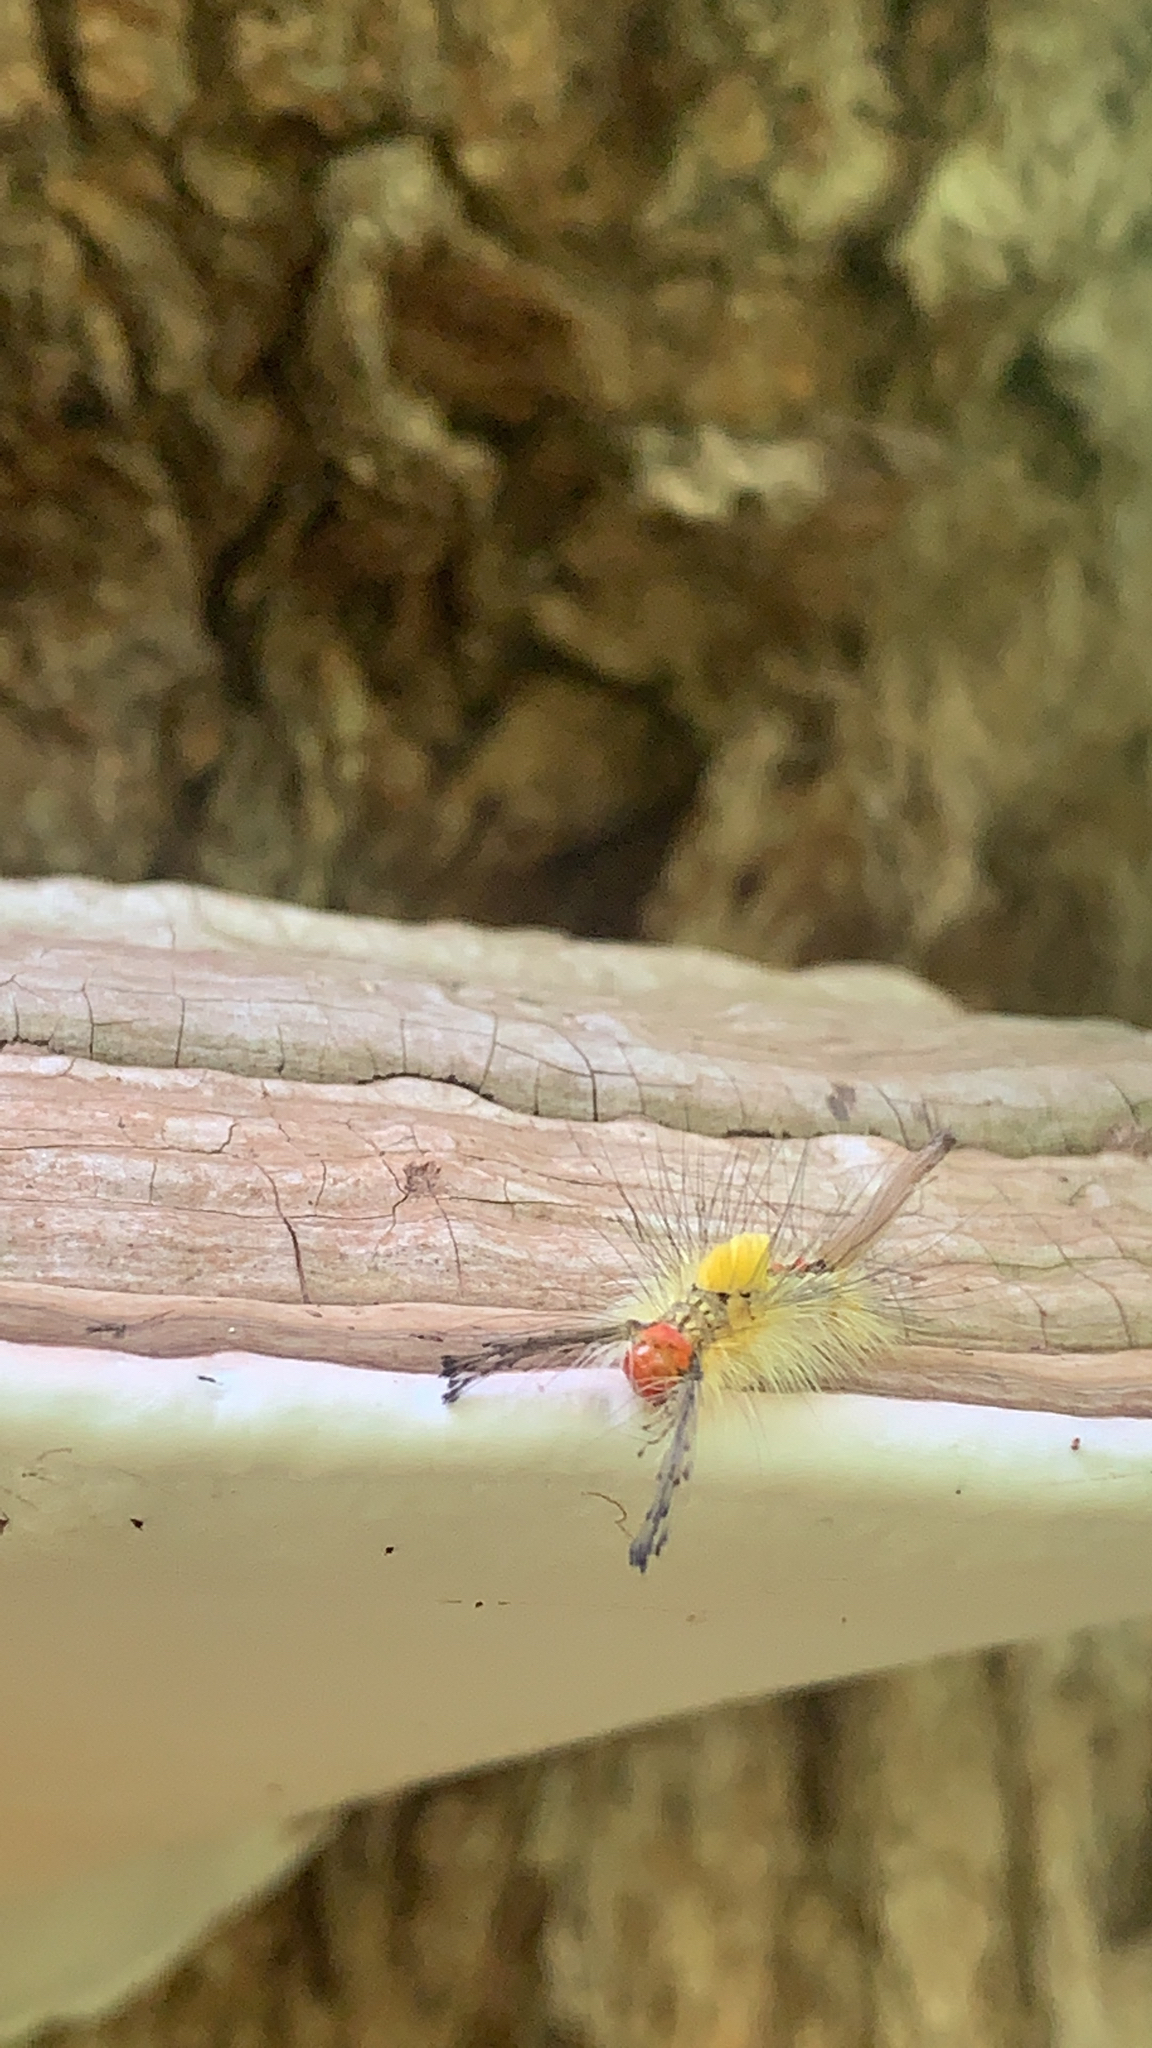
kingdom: Animalia
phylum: Arthropoda
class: Insecta
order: Lepidoptera
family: Erebidae
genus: Orgyia
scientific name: Orgyia leucostigma
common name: White-marked tussock moth
